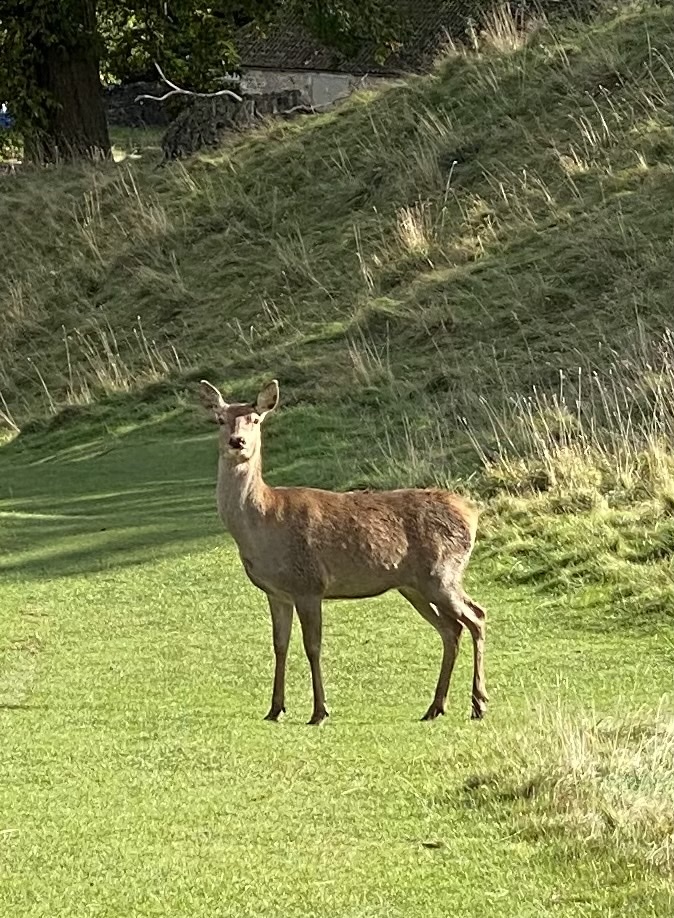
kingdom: Animalia
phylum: Chordata
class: Mammalia
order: Artiodactyla
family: Cervidae
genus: Cervus
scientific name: Cervus elaphus
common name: Red deer
